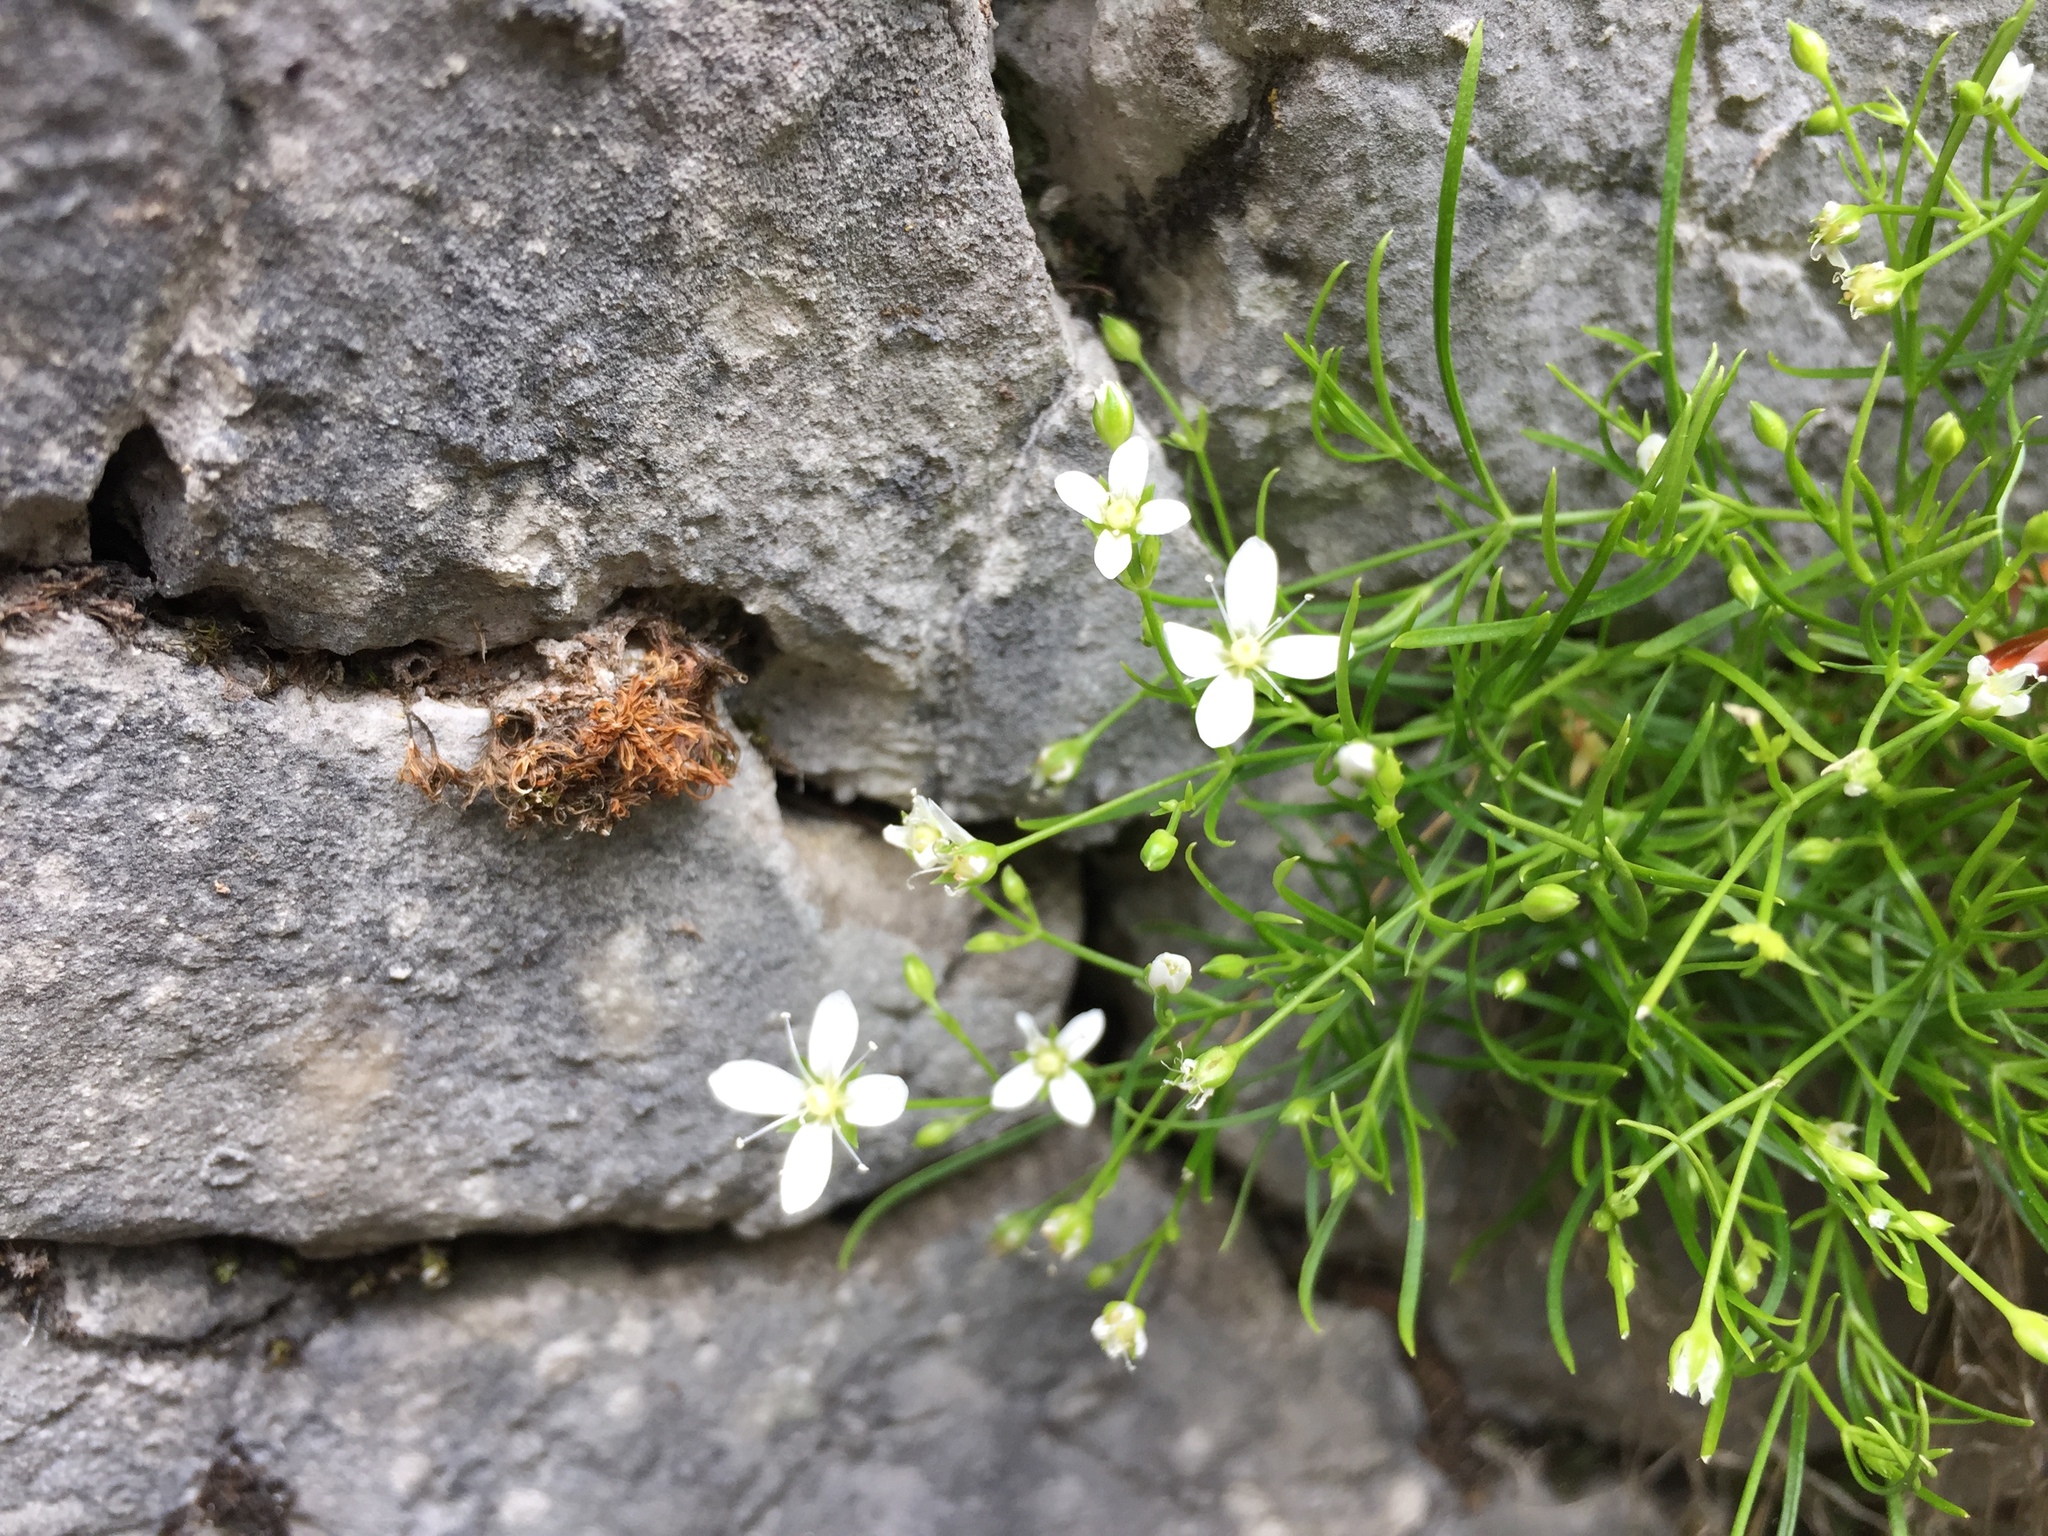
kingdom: Plantae
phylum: Tracheophyta
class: Magnoliopsida
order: Caryophyllales
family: Caryophyllaceae
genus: Moehringia
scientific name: Moehringia muscosa
